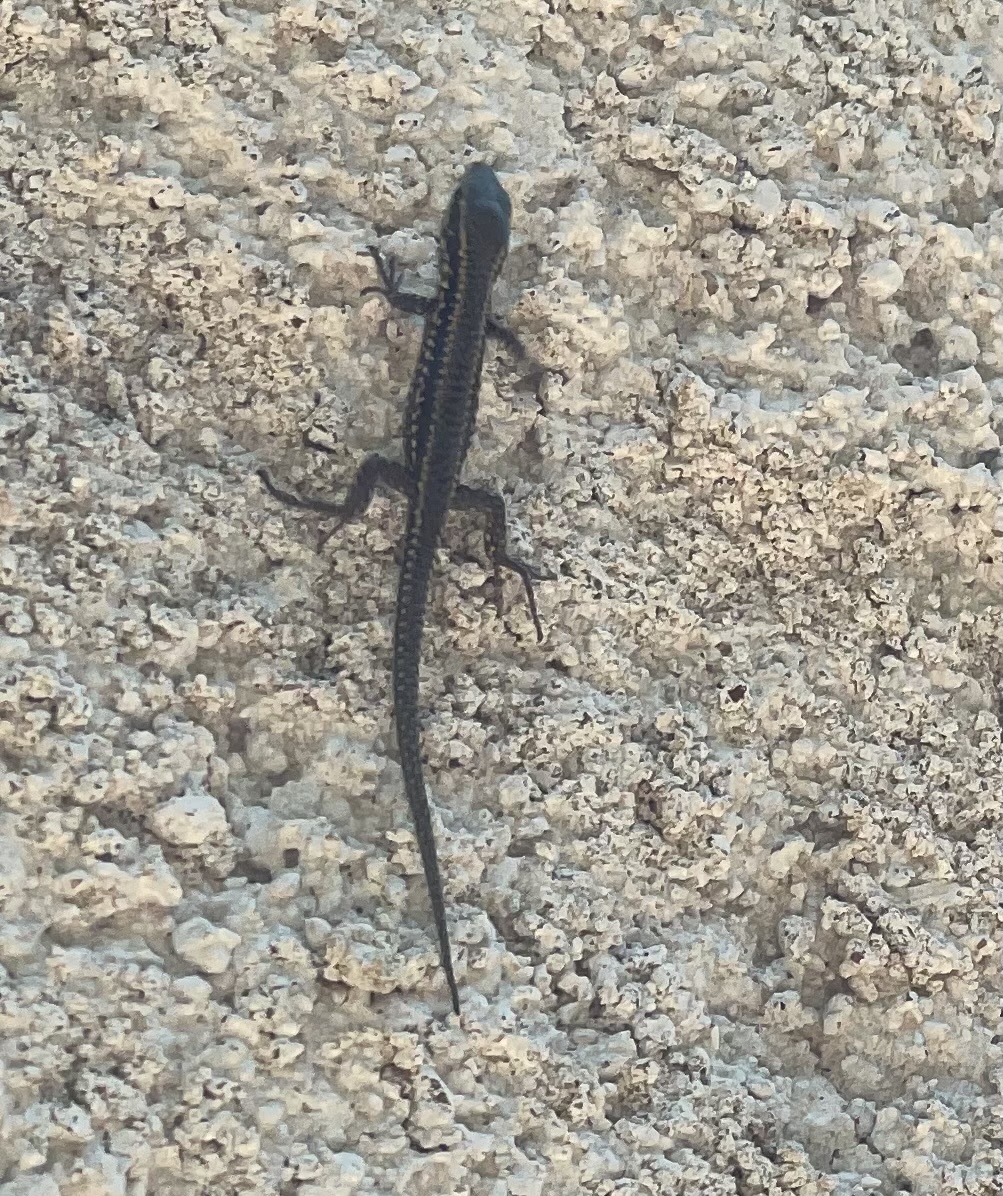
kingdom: Animalia
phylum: Chordata
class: Squamata
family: Lacertidae
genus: Podarcis
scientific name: Podarcis muralis
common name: Common wall lizard
